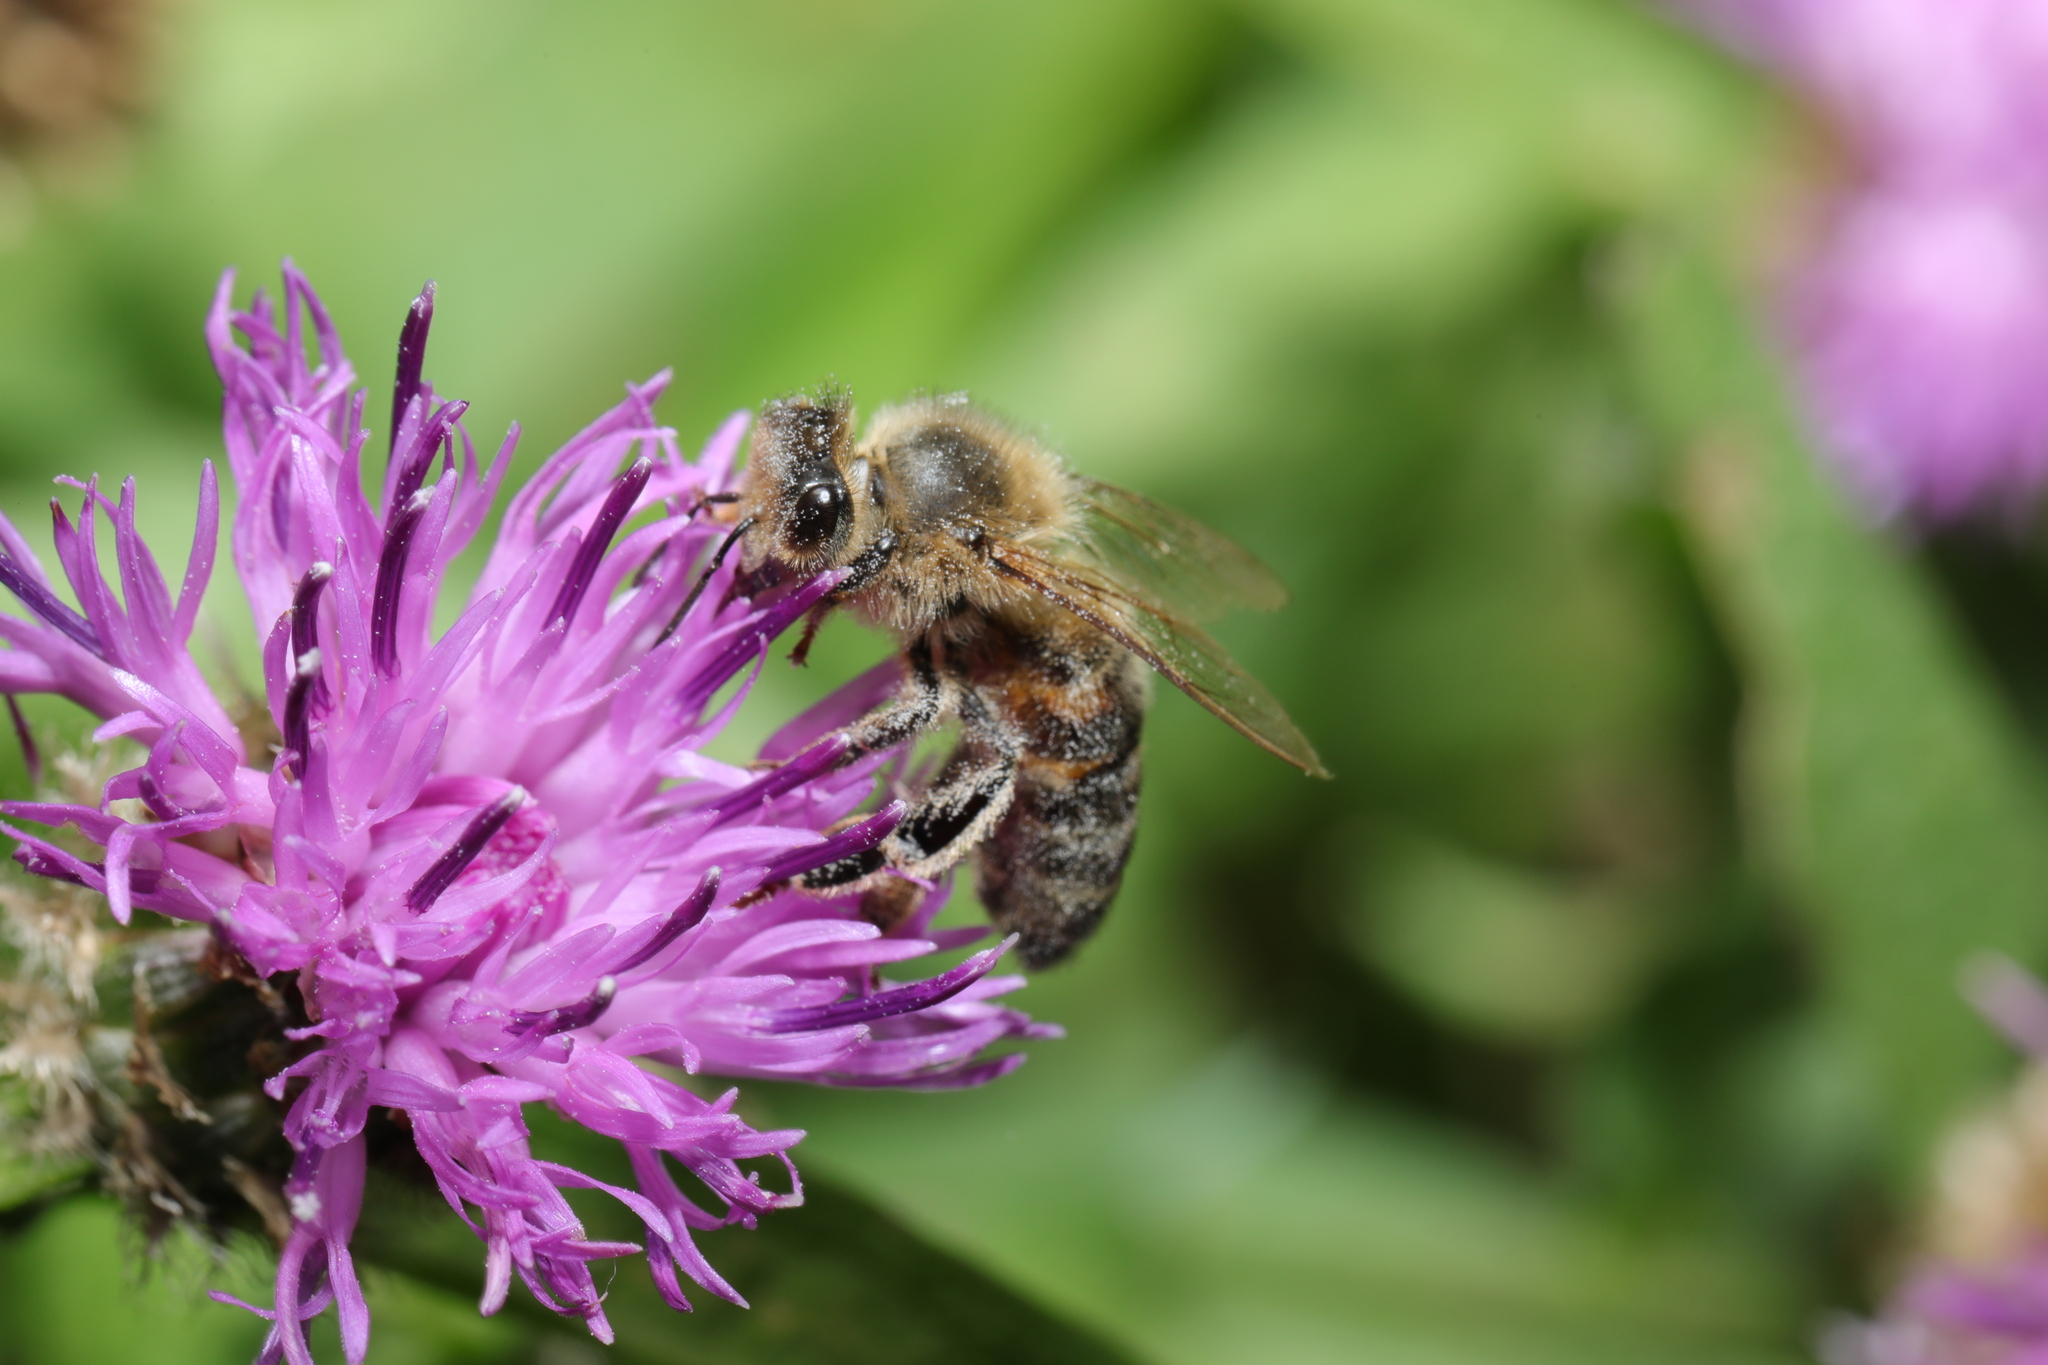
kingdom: Animalia
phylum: Arthropoda
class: Insecta
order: Hymenoptera
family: Apidae
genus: Apis
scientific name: Apis mellifera
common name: Honey bee
